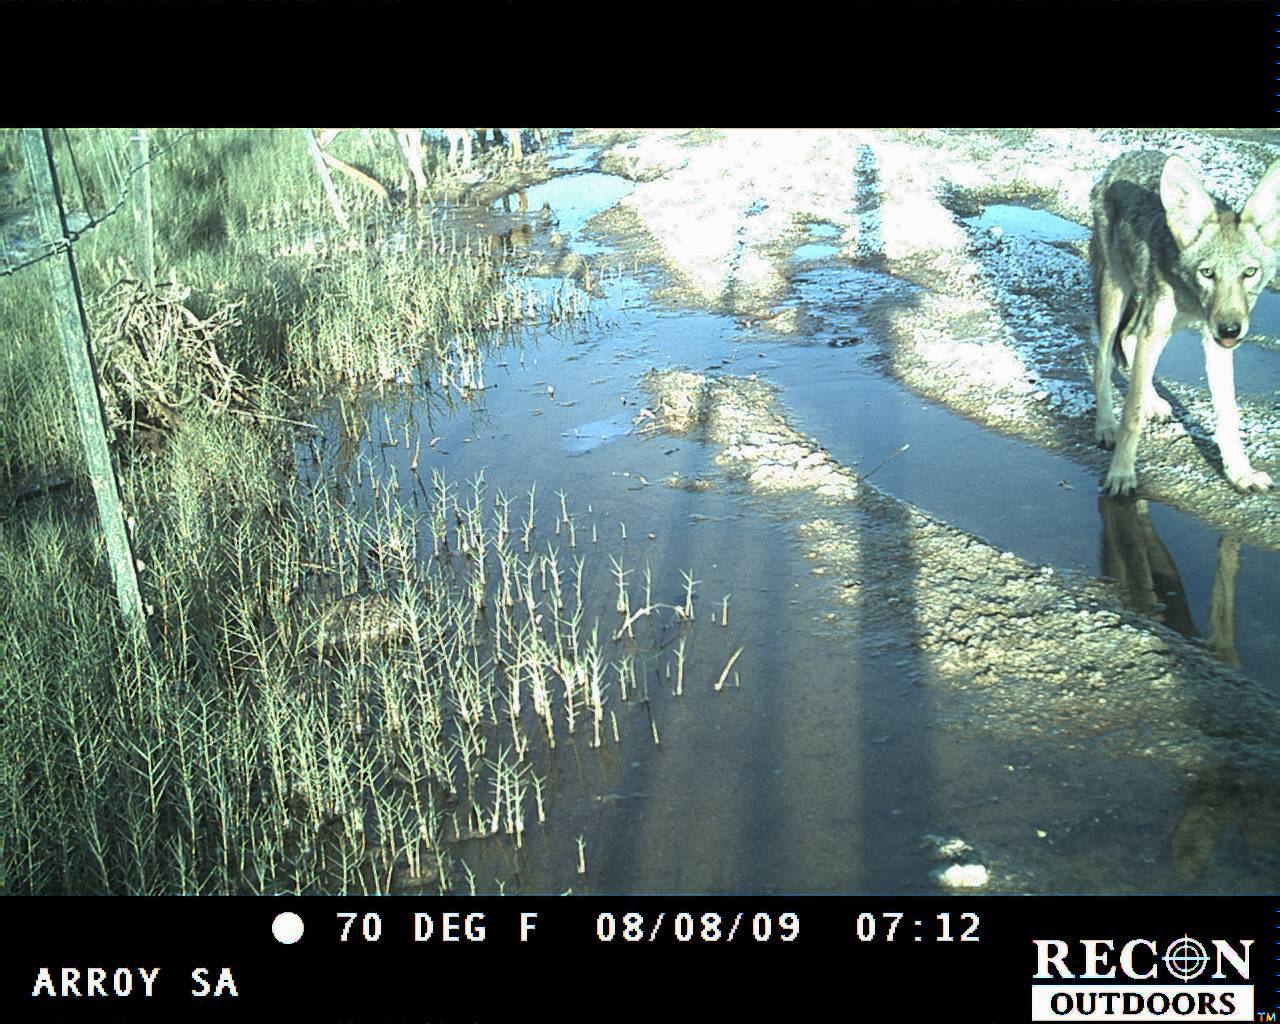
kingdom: Animalia
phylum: Chordata
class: Mammalia
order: Carnivora
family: Canidae
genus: Canis
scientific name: Canis latrans
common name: Coyote
